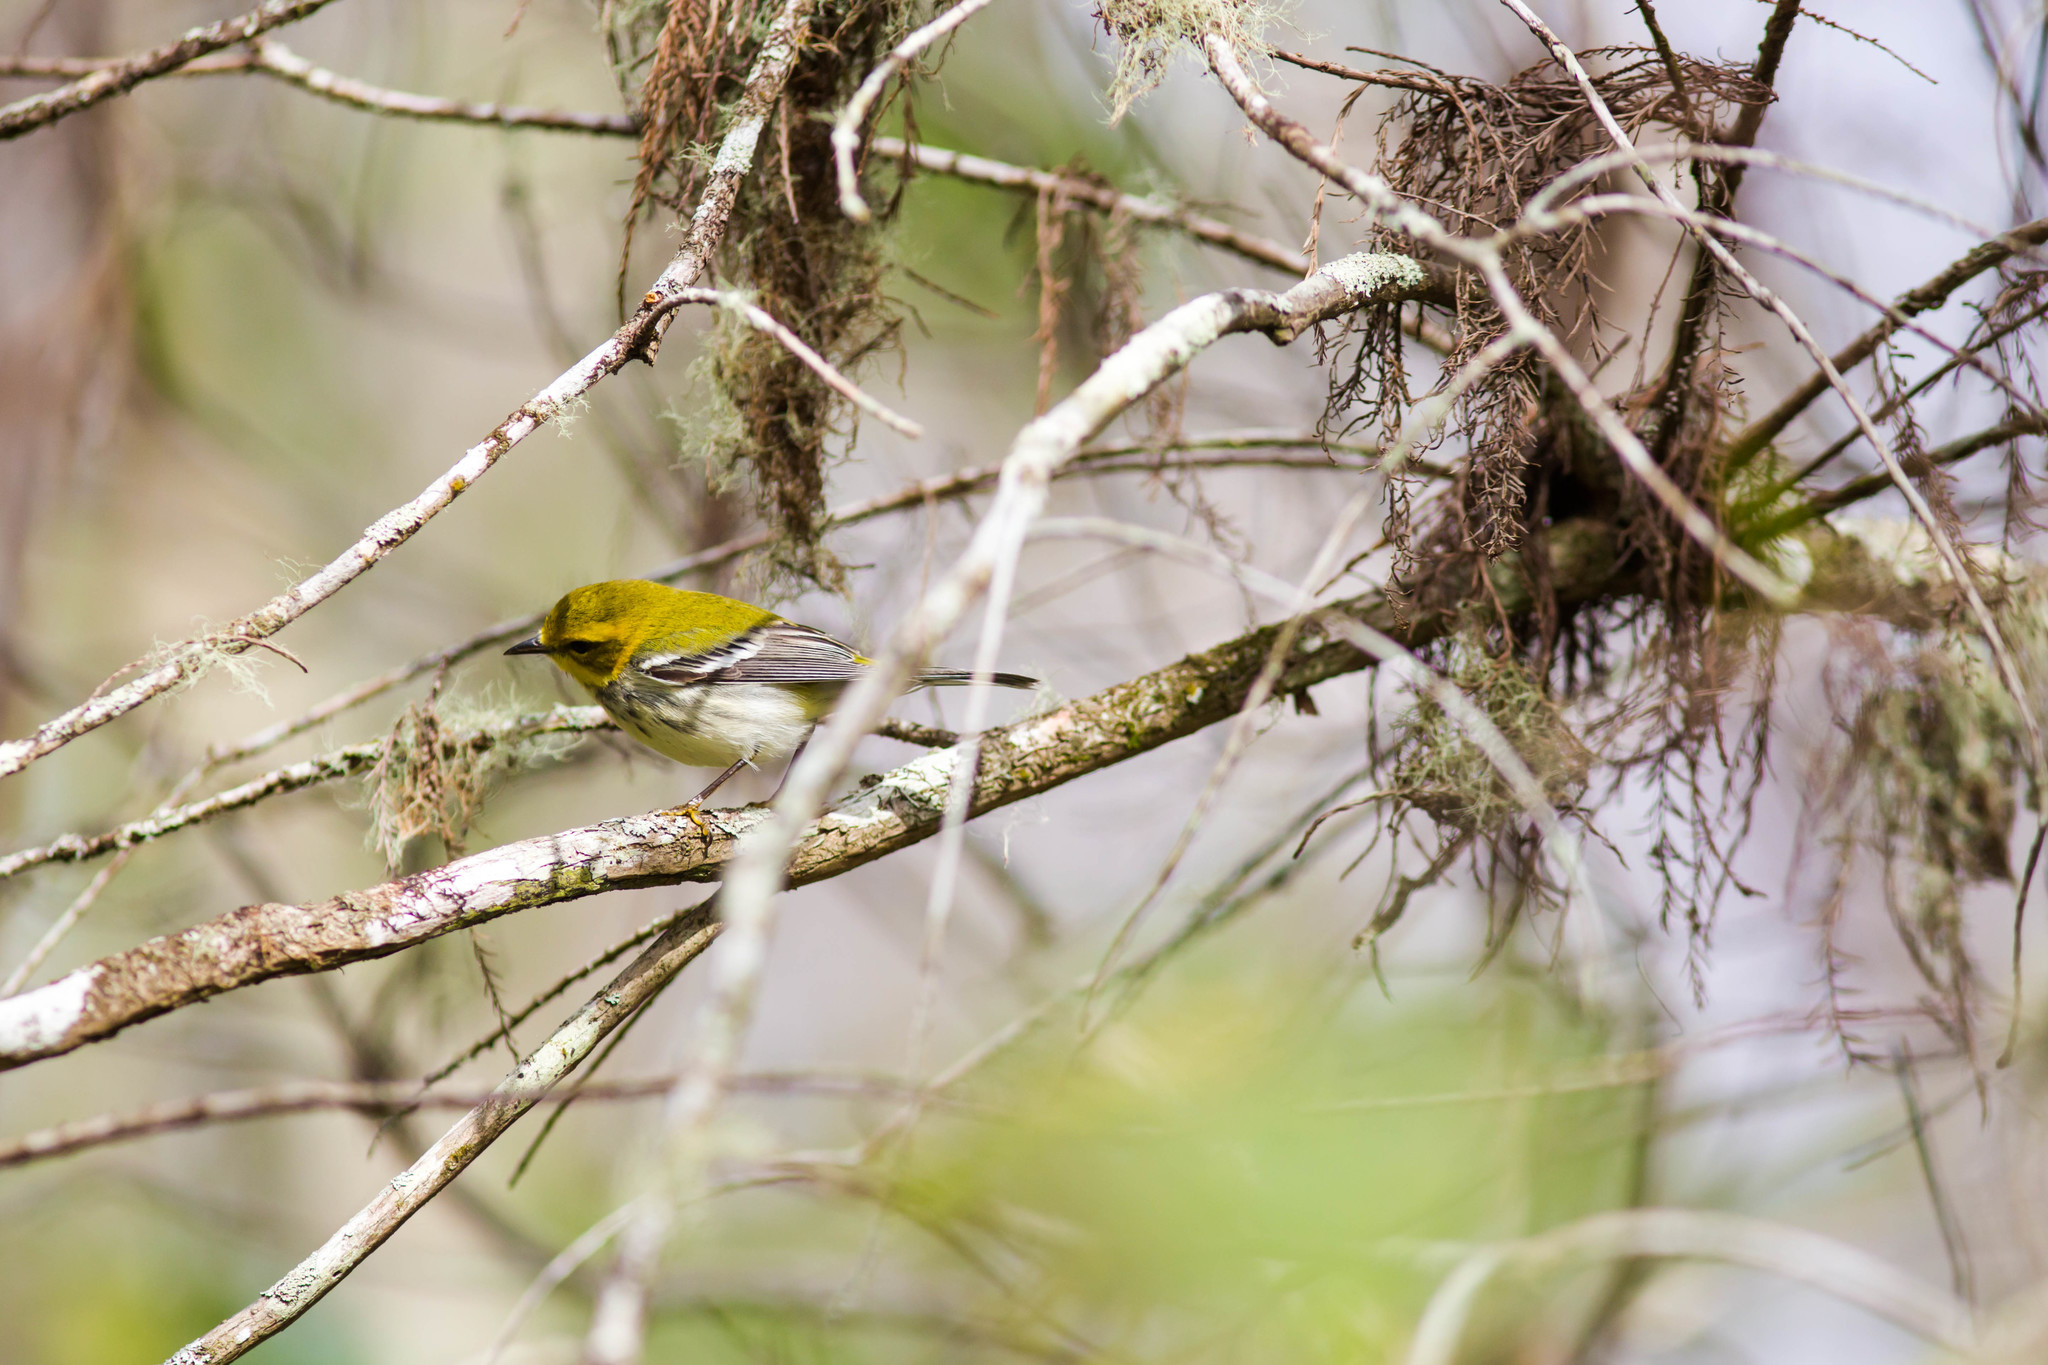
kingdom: Animalia
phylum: Chordata
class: Aves
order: Passeriformes
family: Parulidae
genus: Setophaga
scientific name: Setophaga virens
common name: Black-throated green warbler
